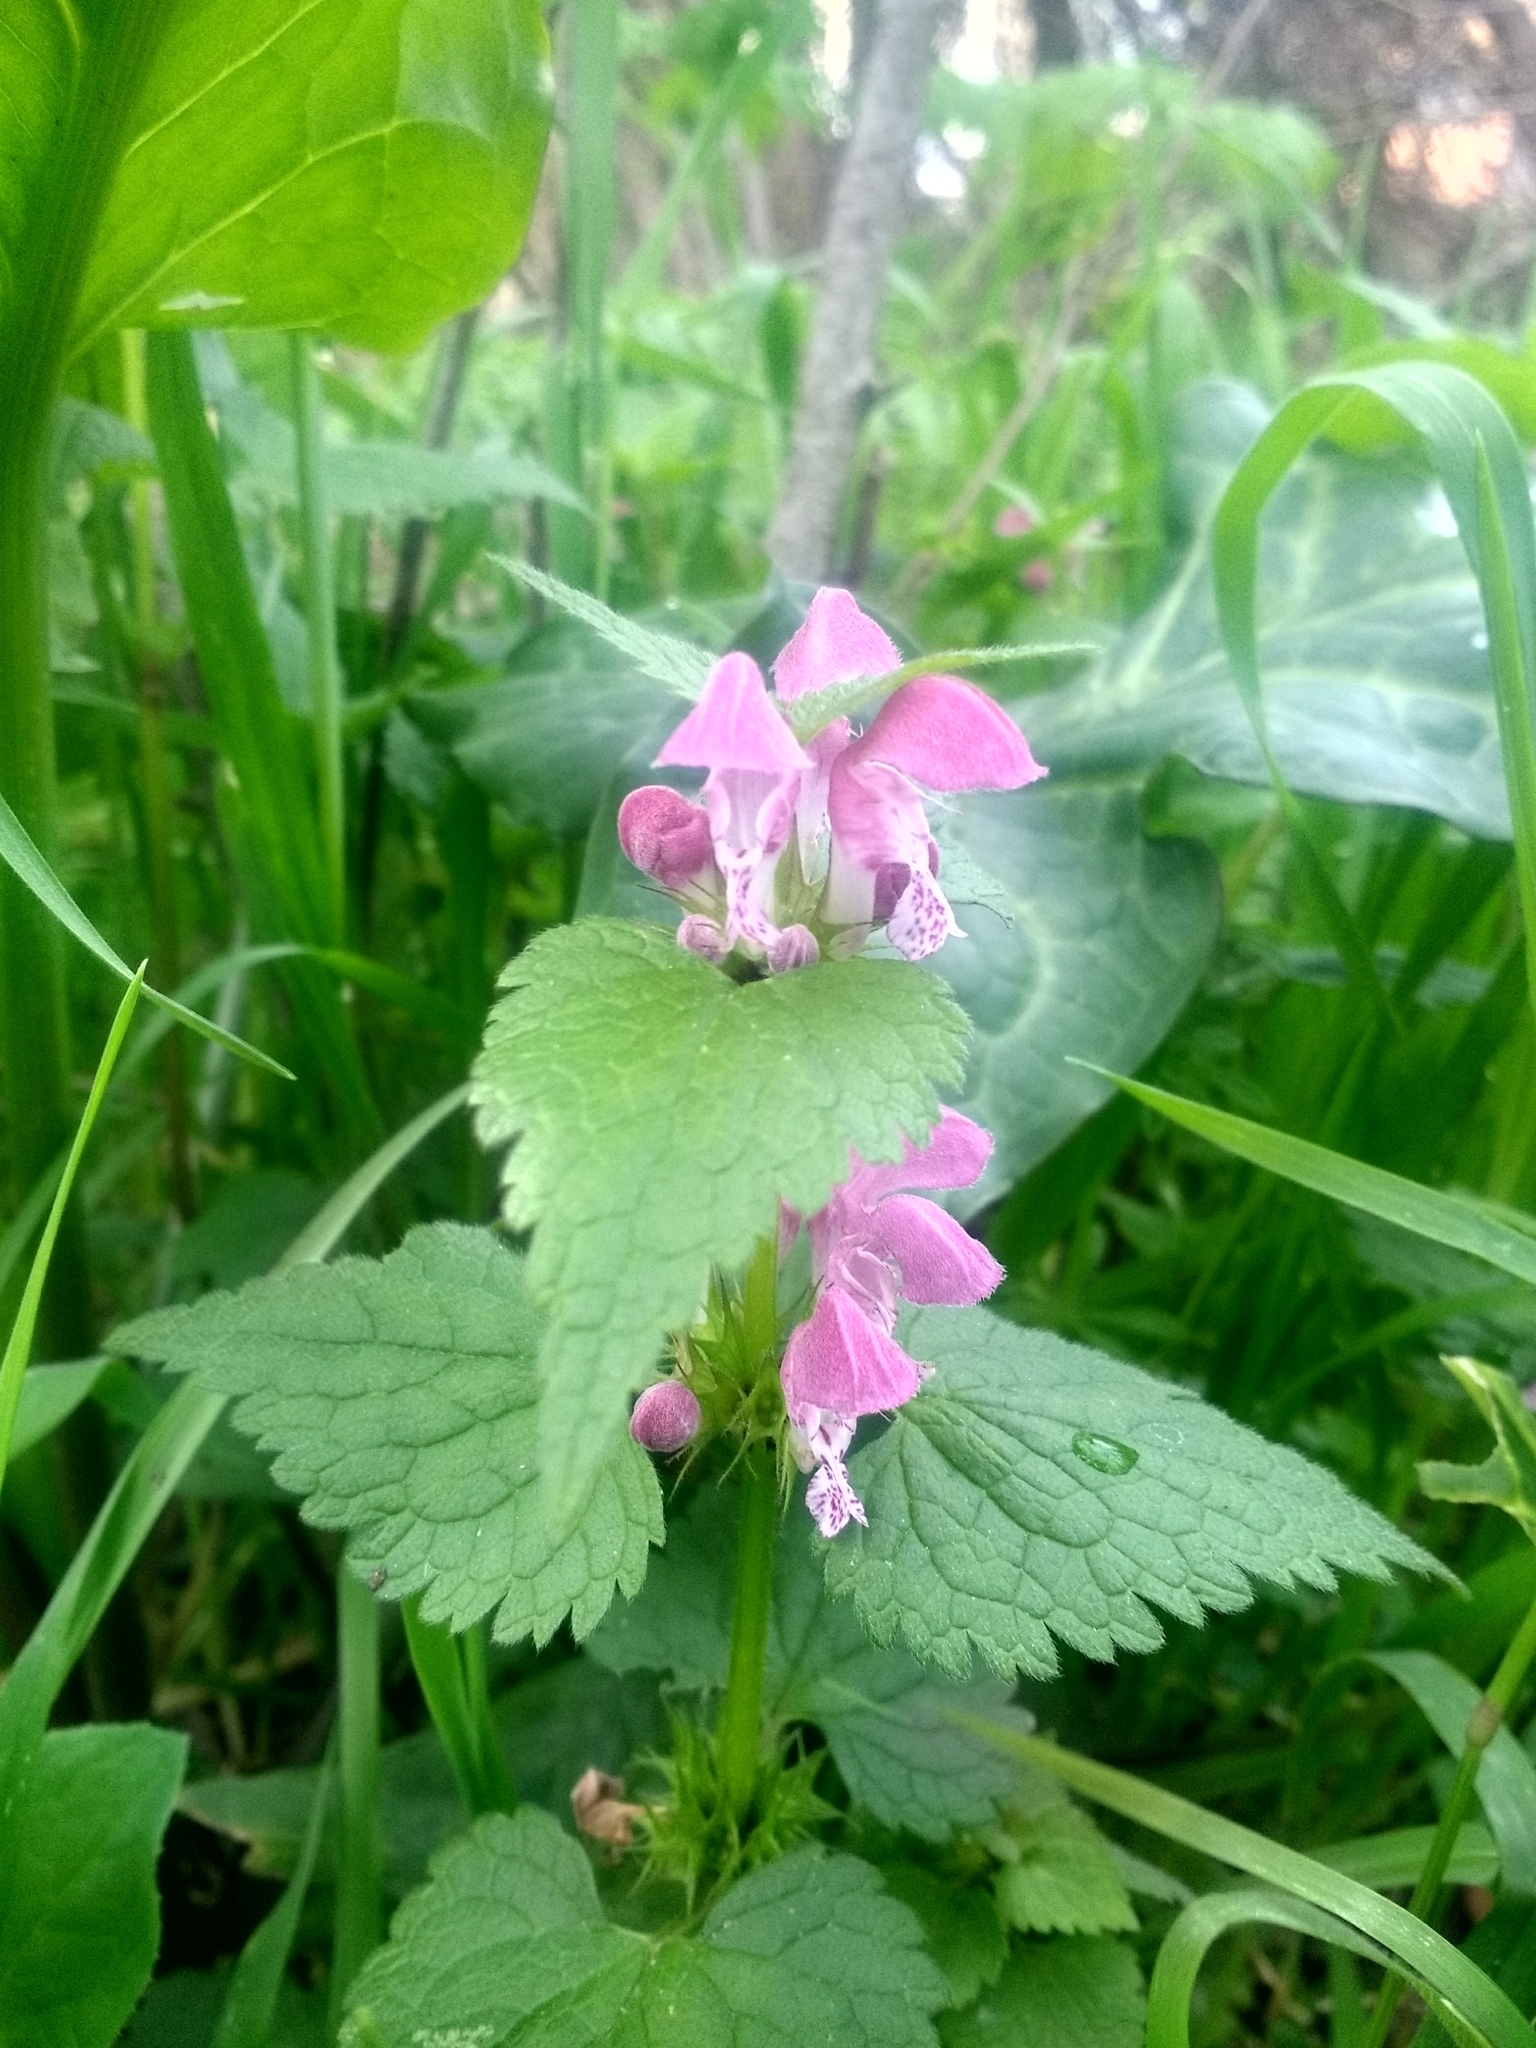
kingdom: Plantae
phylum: Tracheophyta
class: Magnoliopsida
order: Lamiales
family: Lamiaceae
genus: Lamium
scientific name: Lamium maculatum
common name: Spotted dead-nettle
